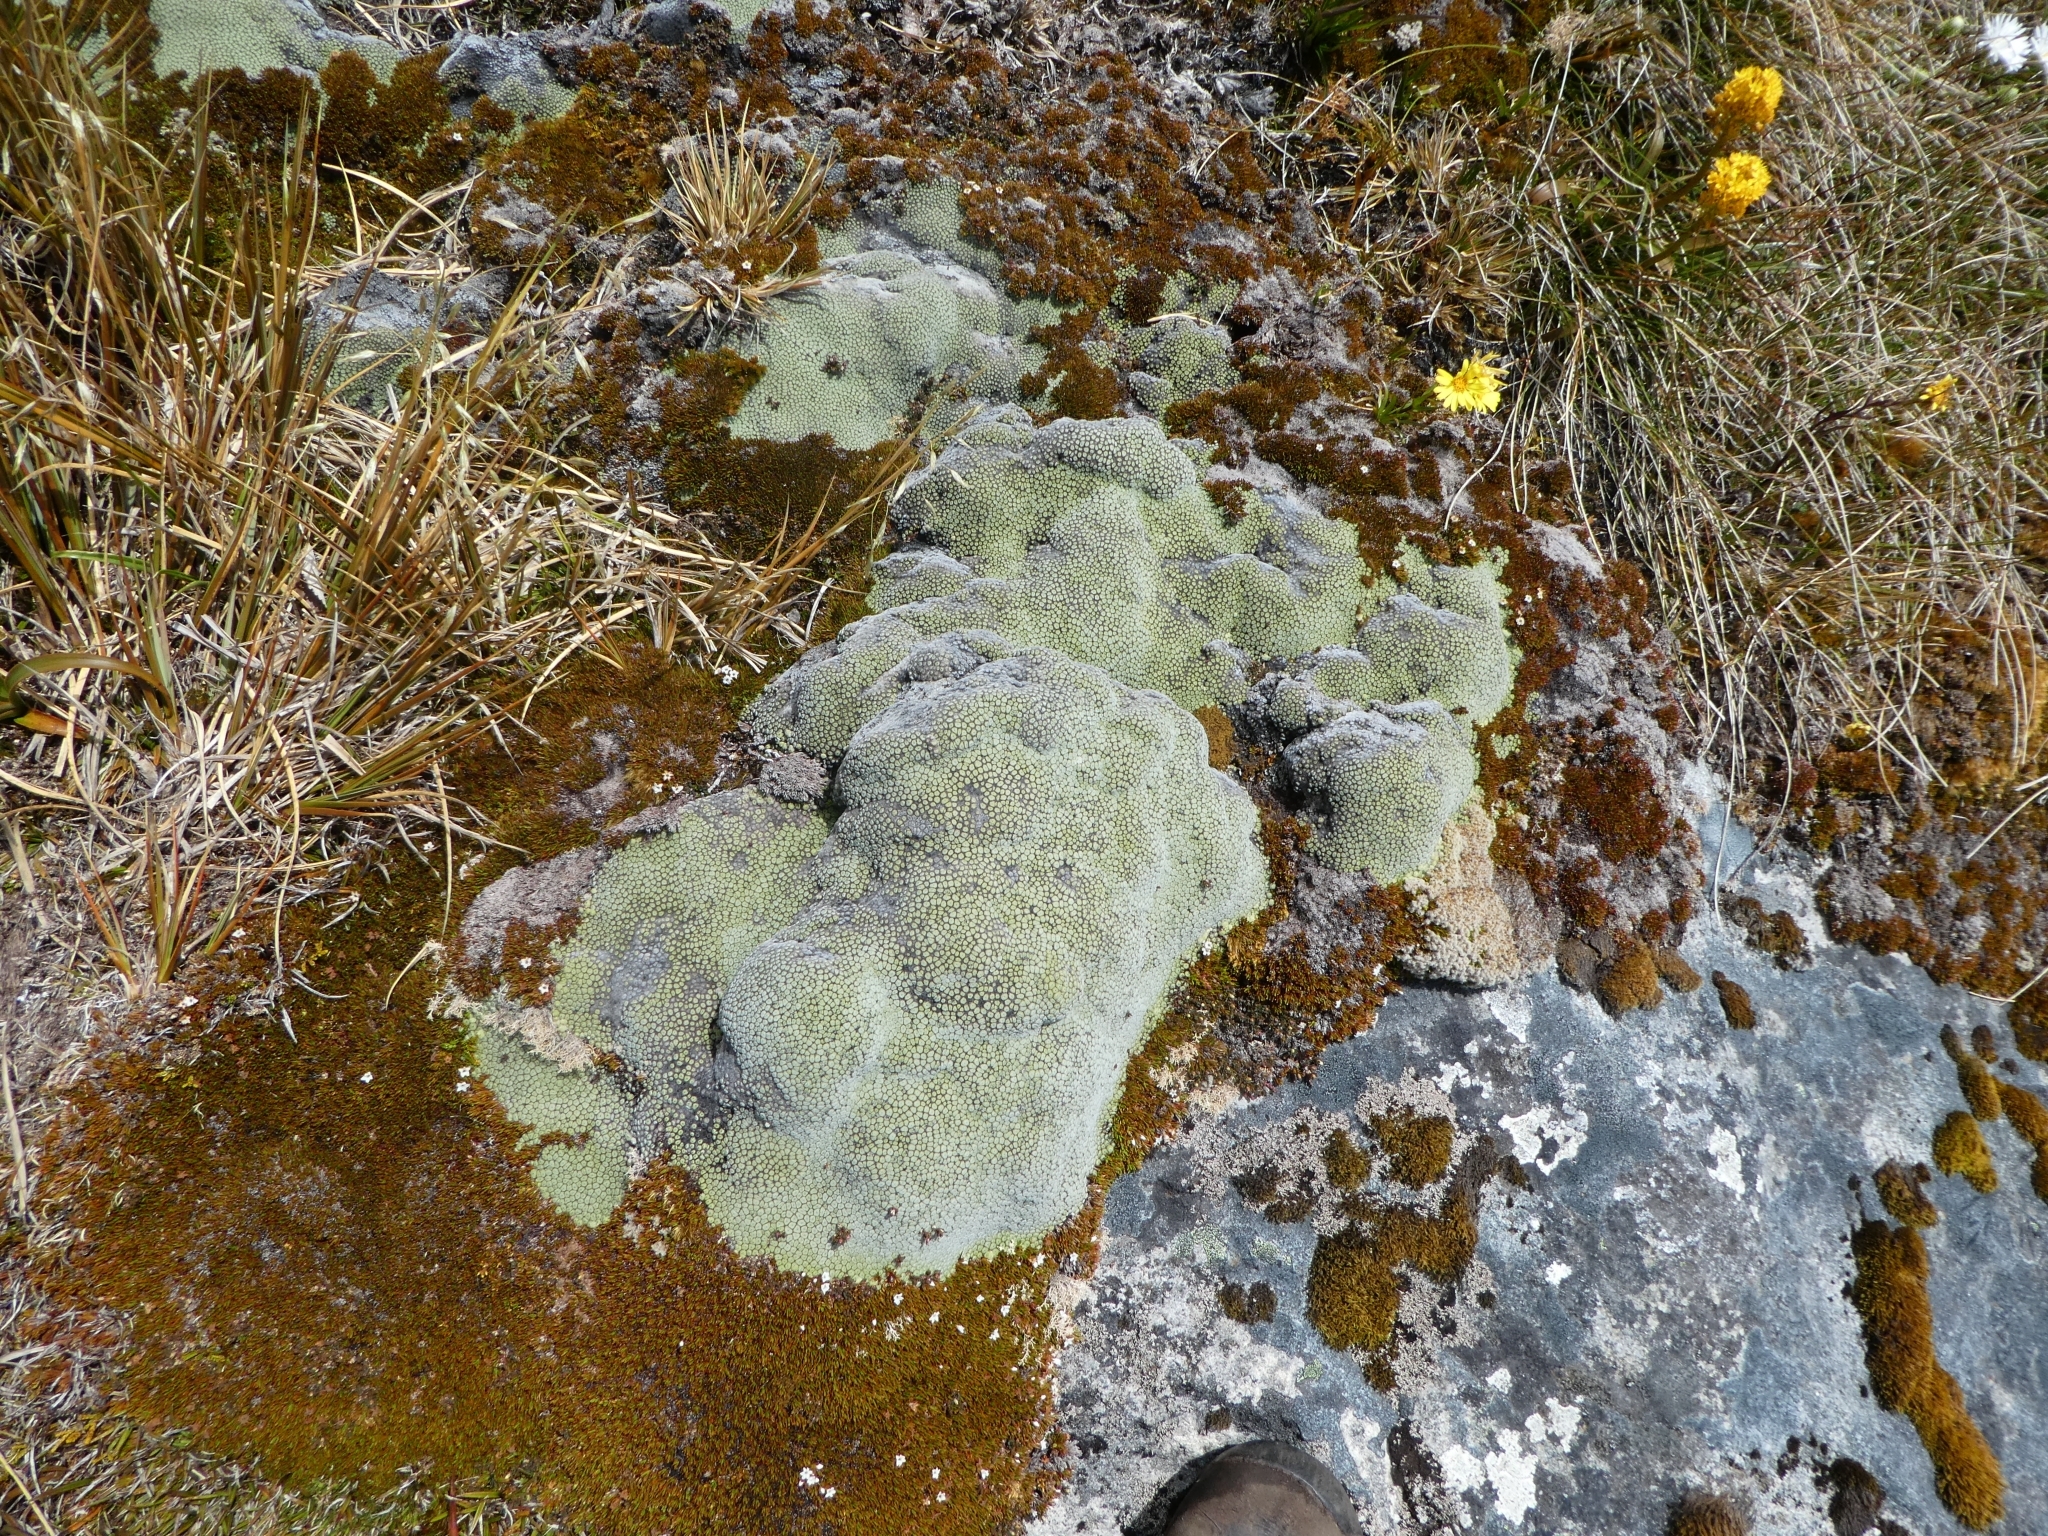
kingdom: Plantae
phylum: Tracheophyta
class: Magnoliopsida
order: Asterales
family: Asteraceae
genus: Raoulia
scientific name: Raoulia goyenii
